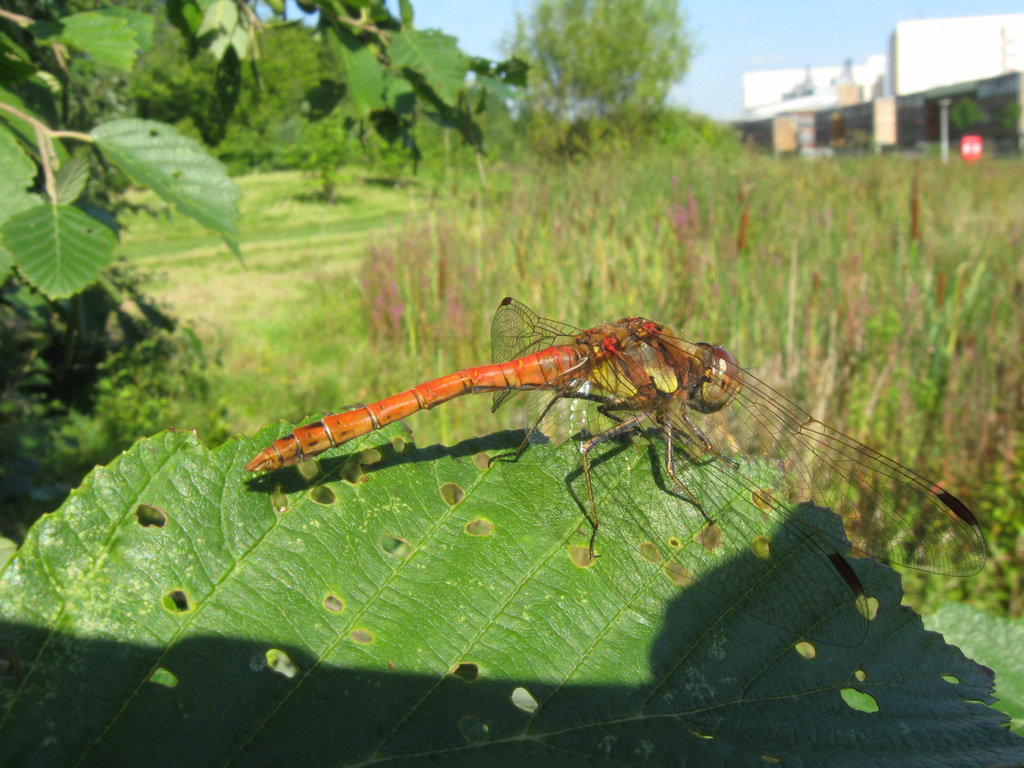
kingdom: Animalia
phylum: Arthropoda
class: Insecta
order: Odonata
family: Libellulidae
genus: Sympetrum
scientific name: Sympetrum striolatum
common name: Common darter
